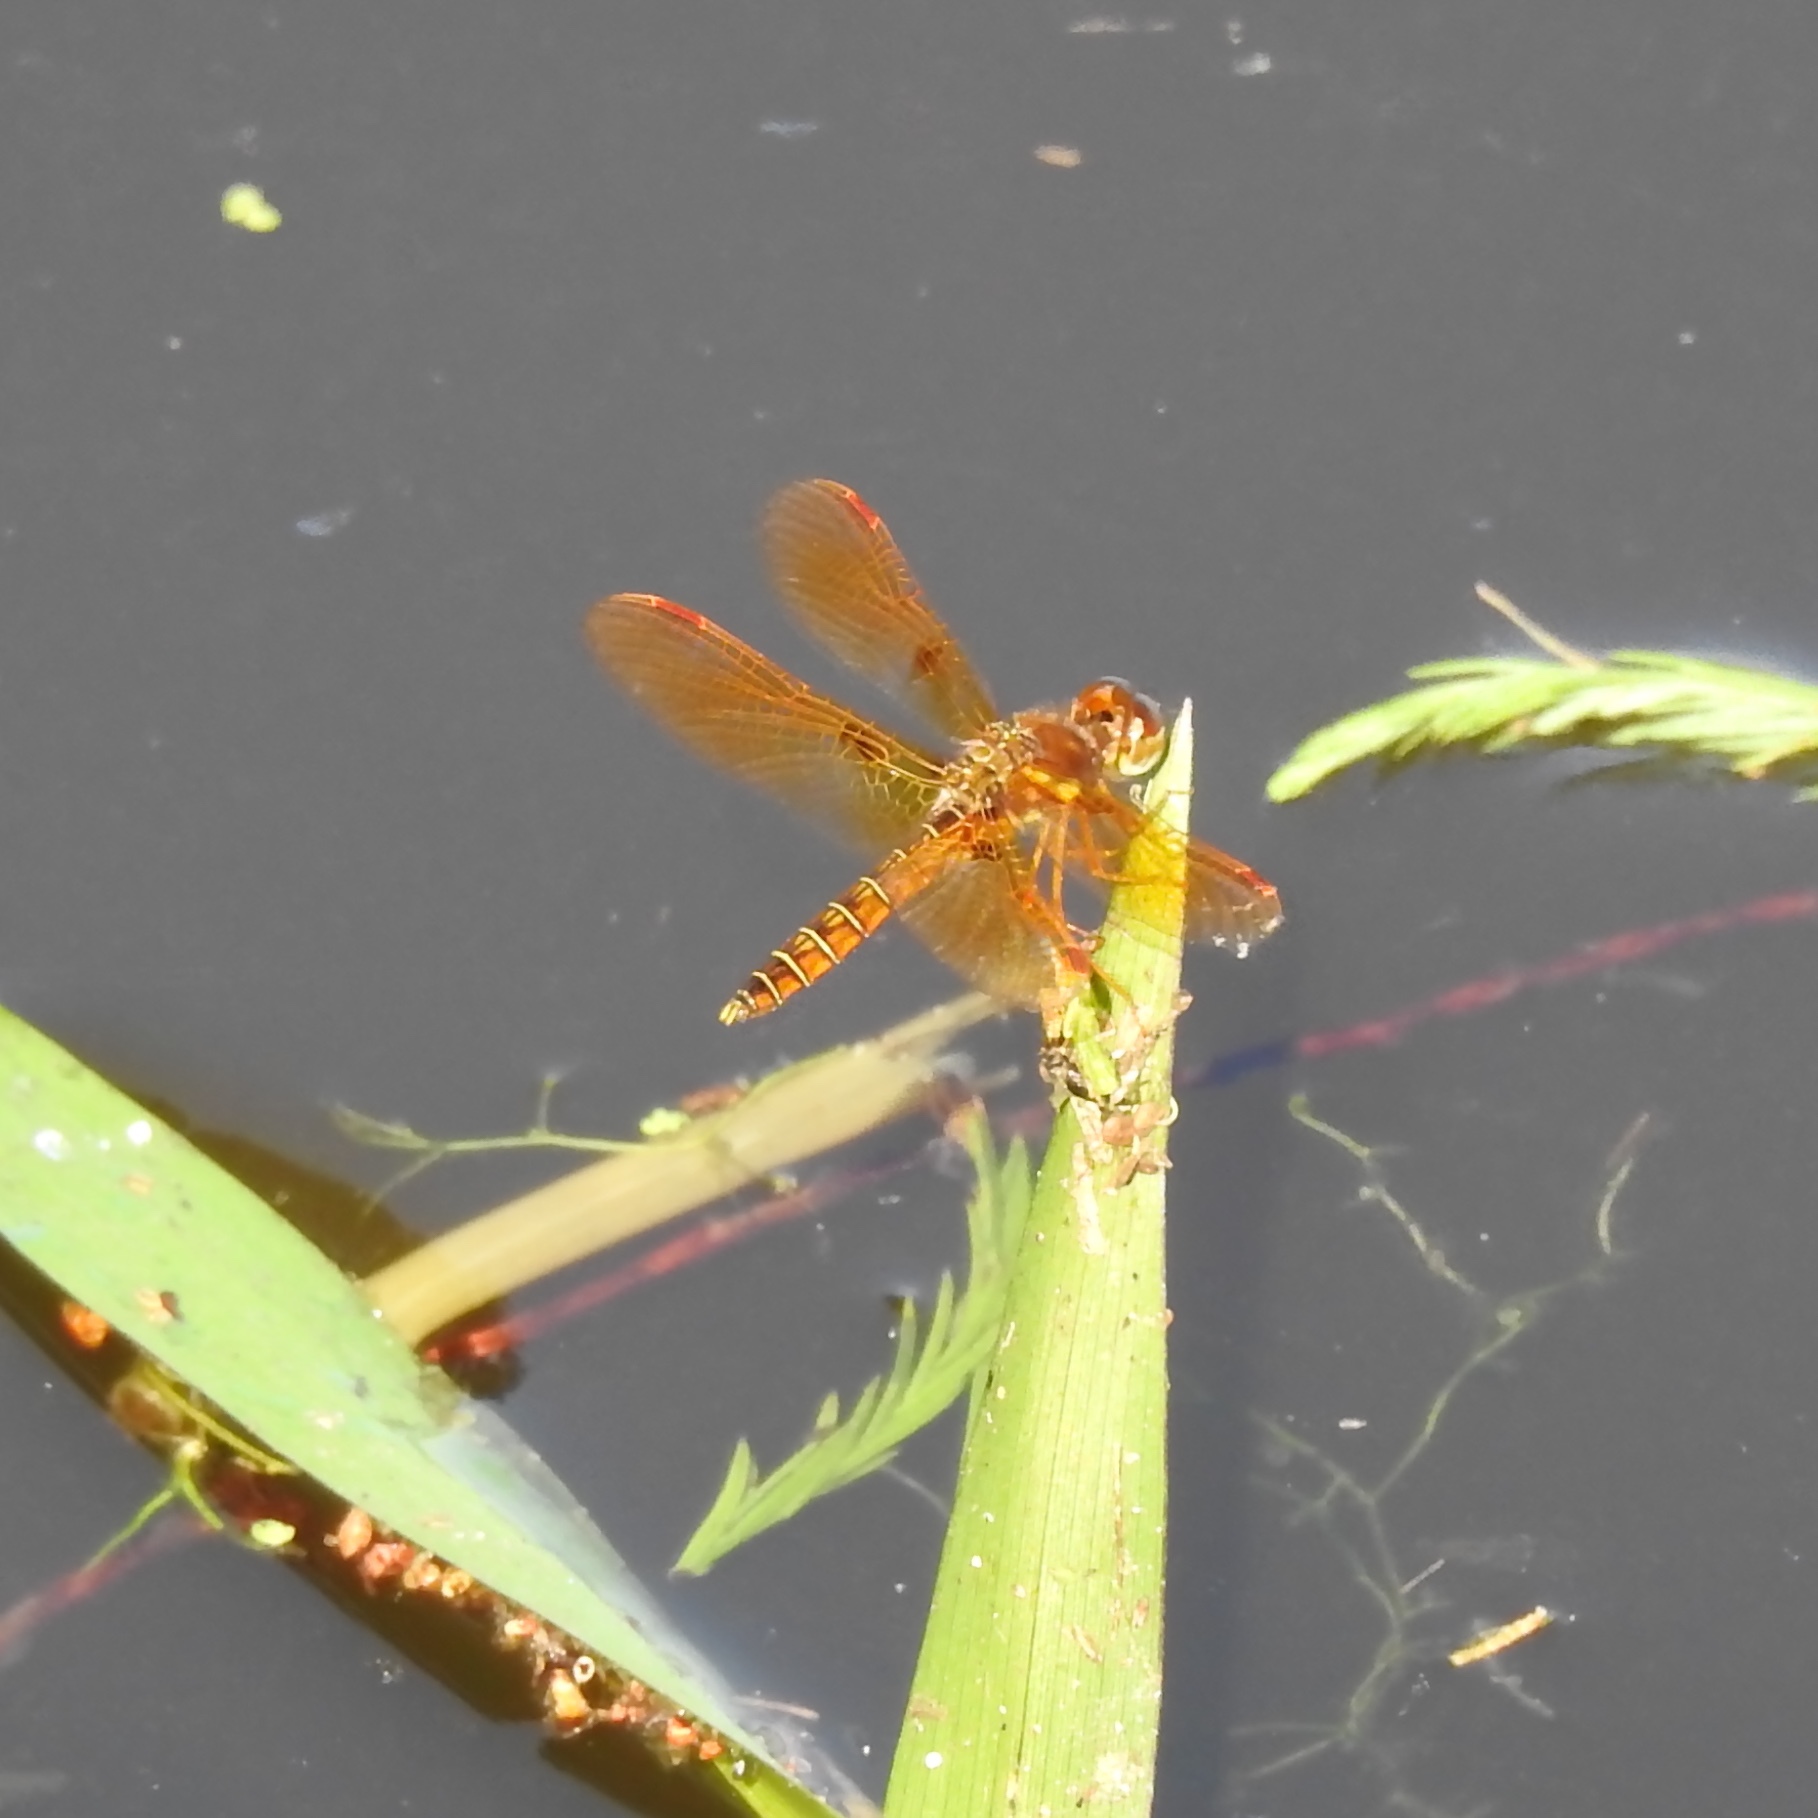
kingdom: Animalia
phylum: Arthropoda
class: Insecta
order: Odonata
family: Libellulidae
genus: Perithemis
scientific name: Perithemis tenera
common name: Eastern amberwing
